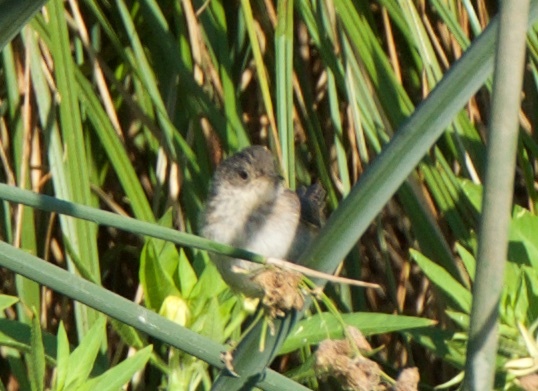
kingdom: Animalia
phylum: Chordata
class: Aves
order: Passeriformes
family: Troglodytidae
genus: Cistothorus
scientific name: Cistothorus palustris
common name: Marsh wren
